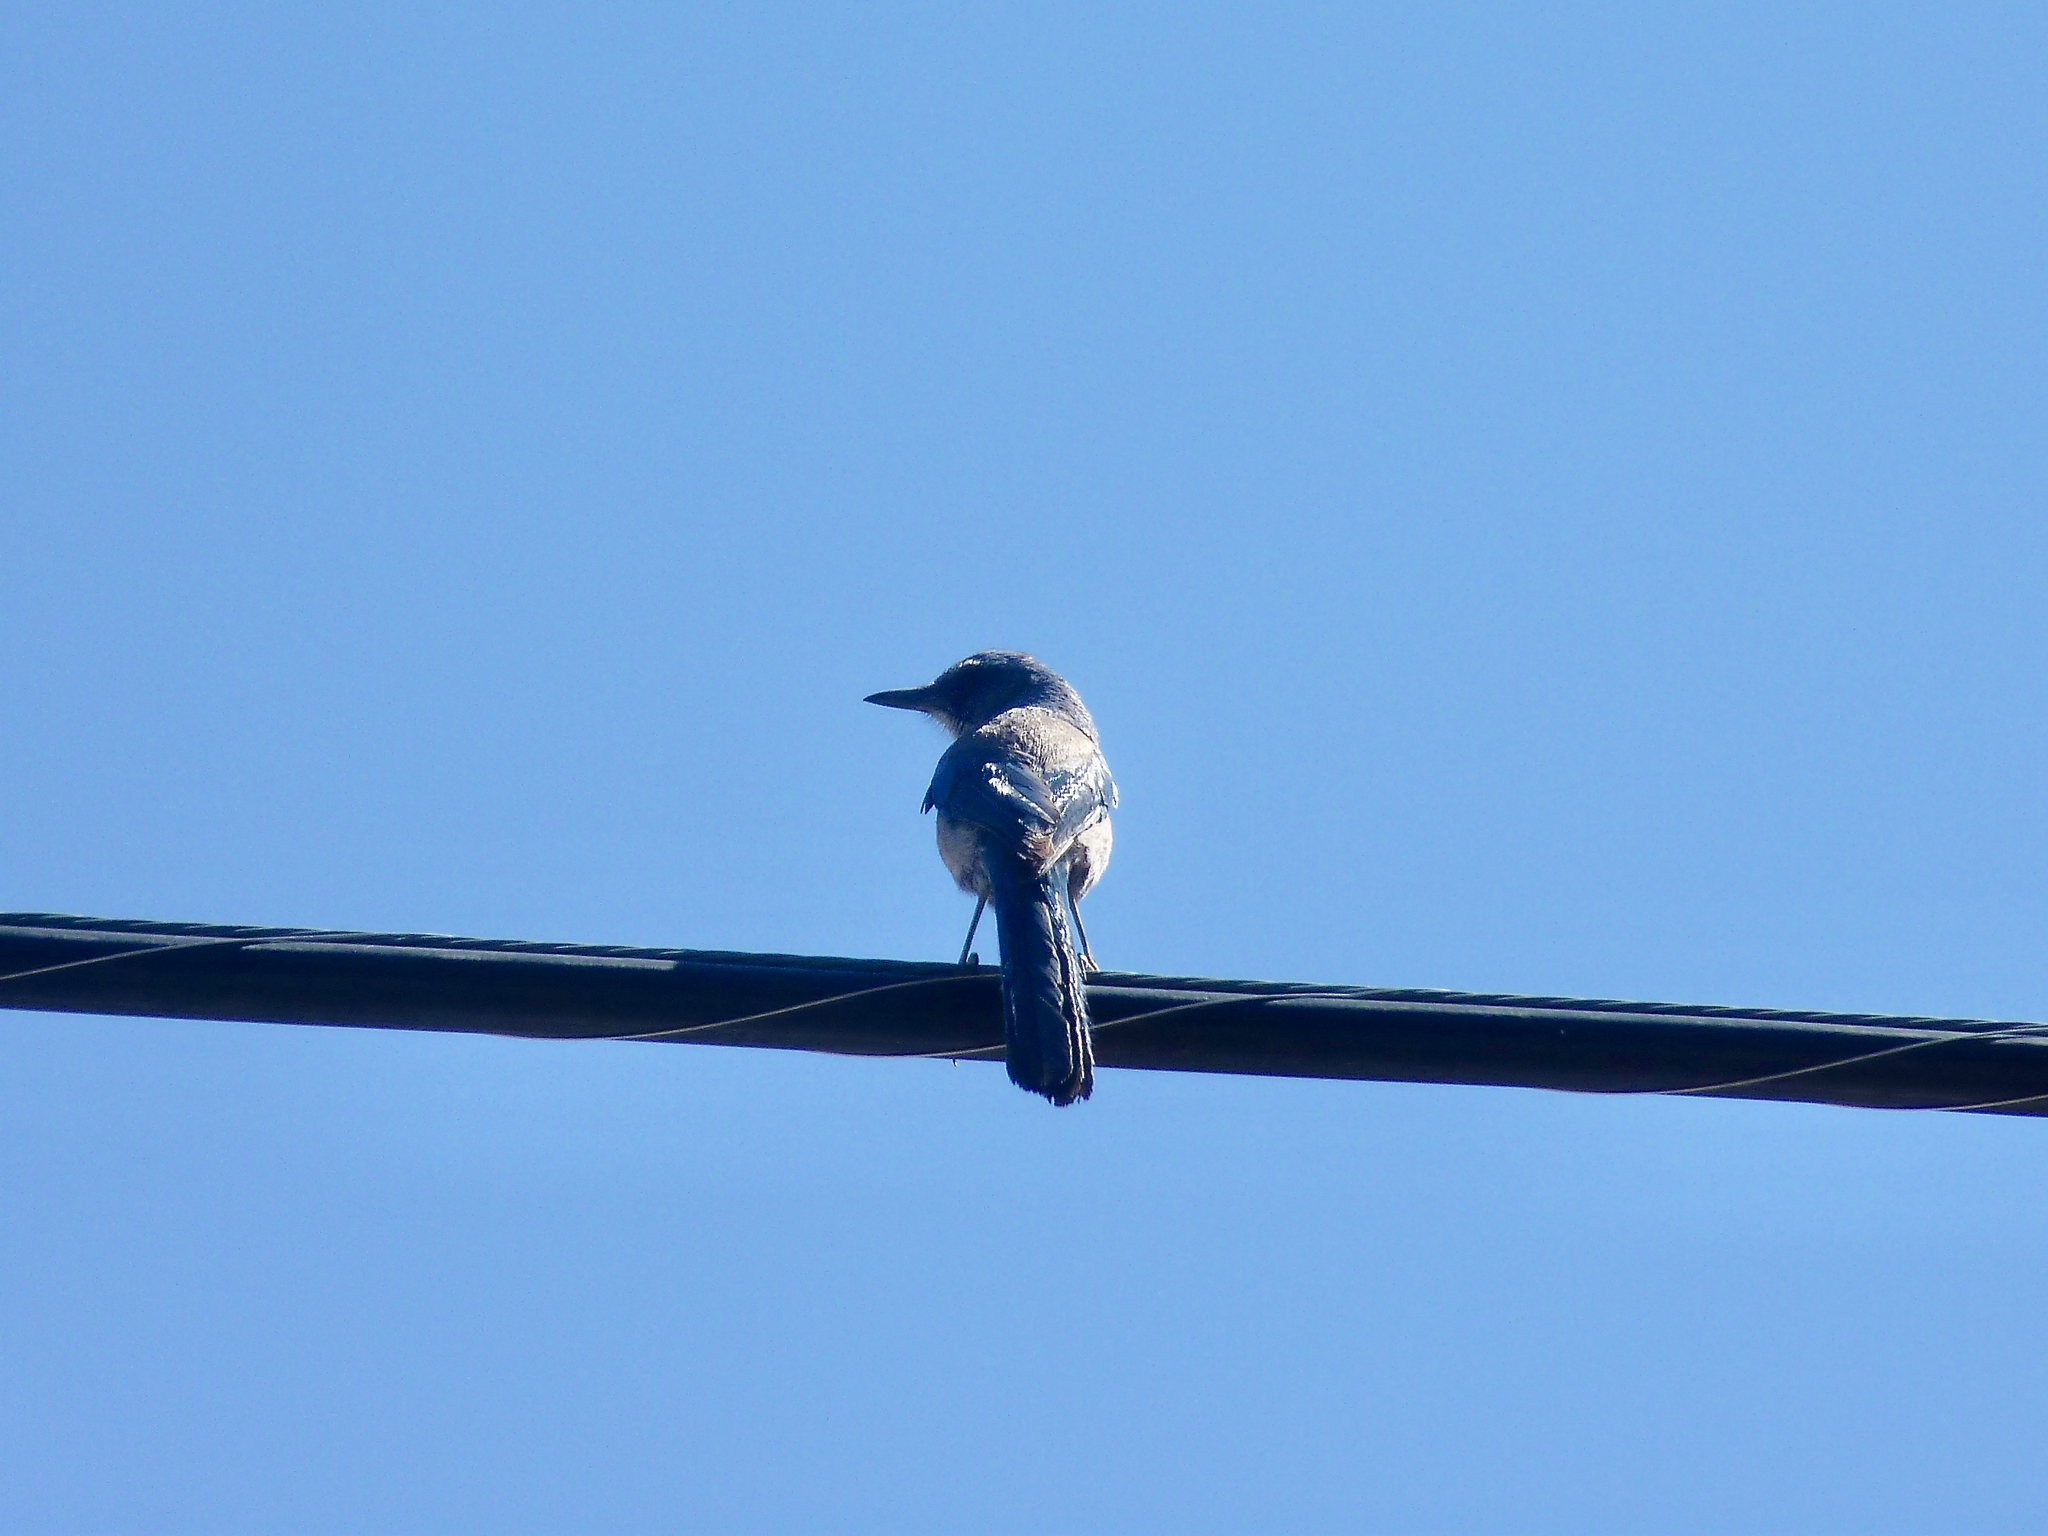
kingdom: Animalia
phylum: Chordata
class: Aves
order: Passeriformes
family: Corvidae
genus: Aphelocoma
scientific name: Aphelocoma woodhouseii
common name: Woodhouse's scrub-jay
